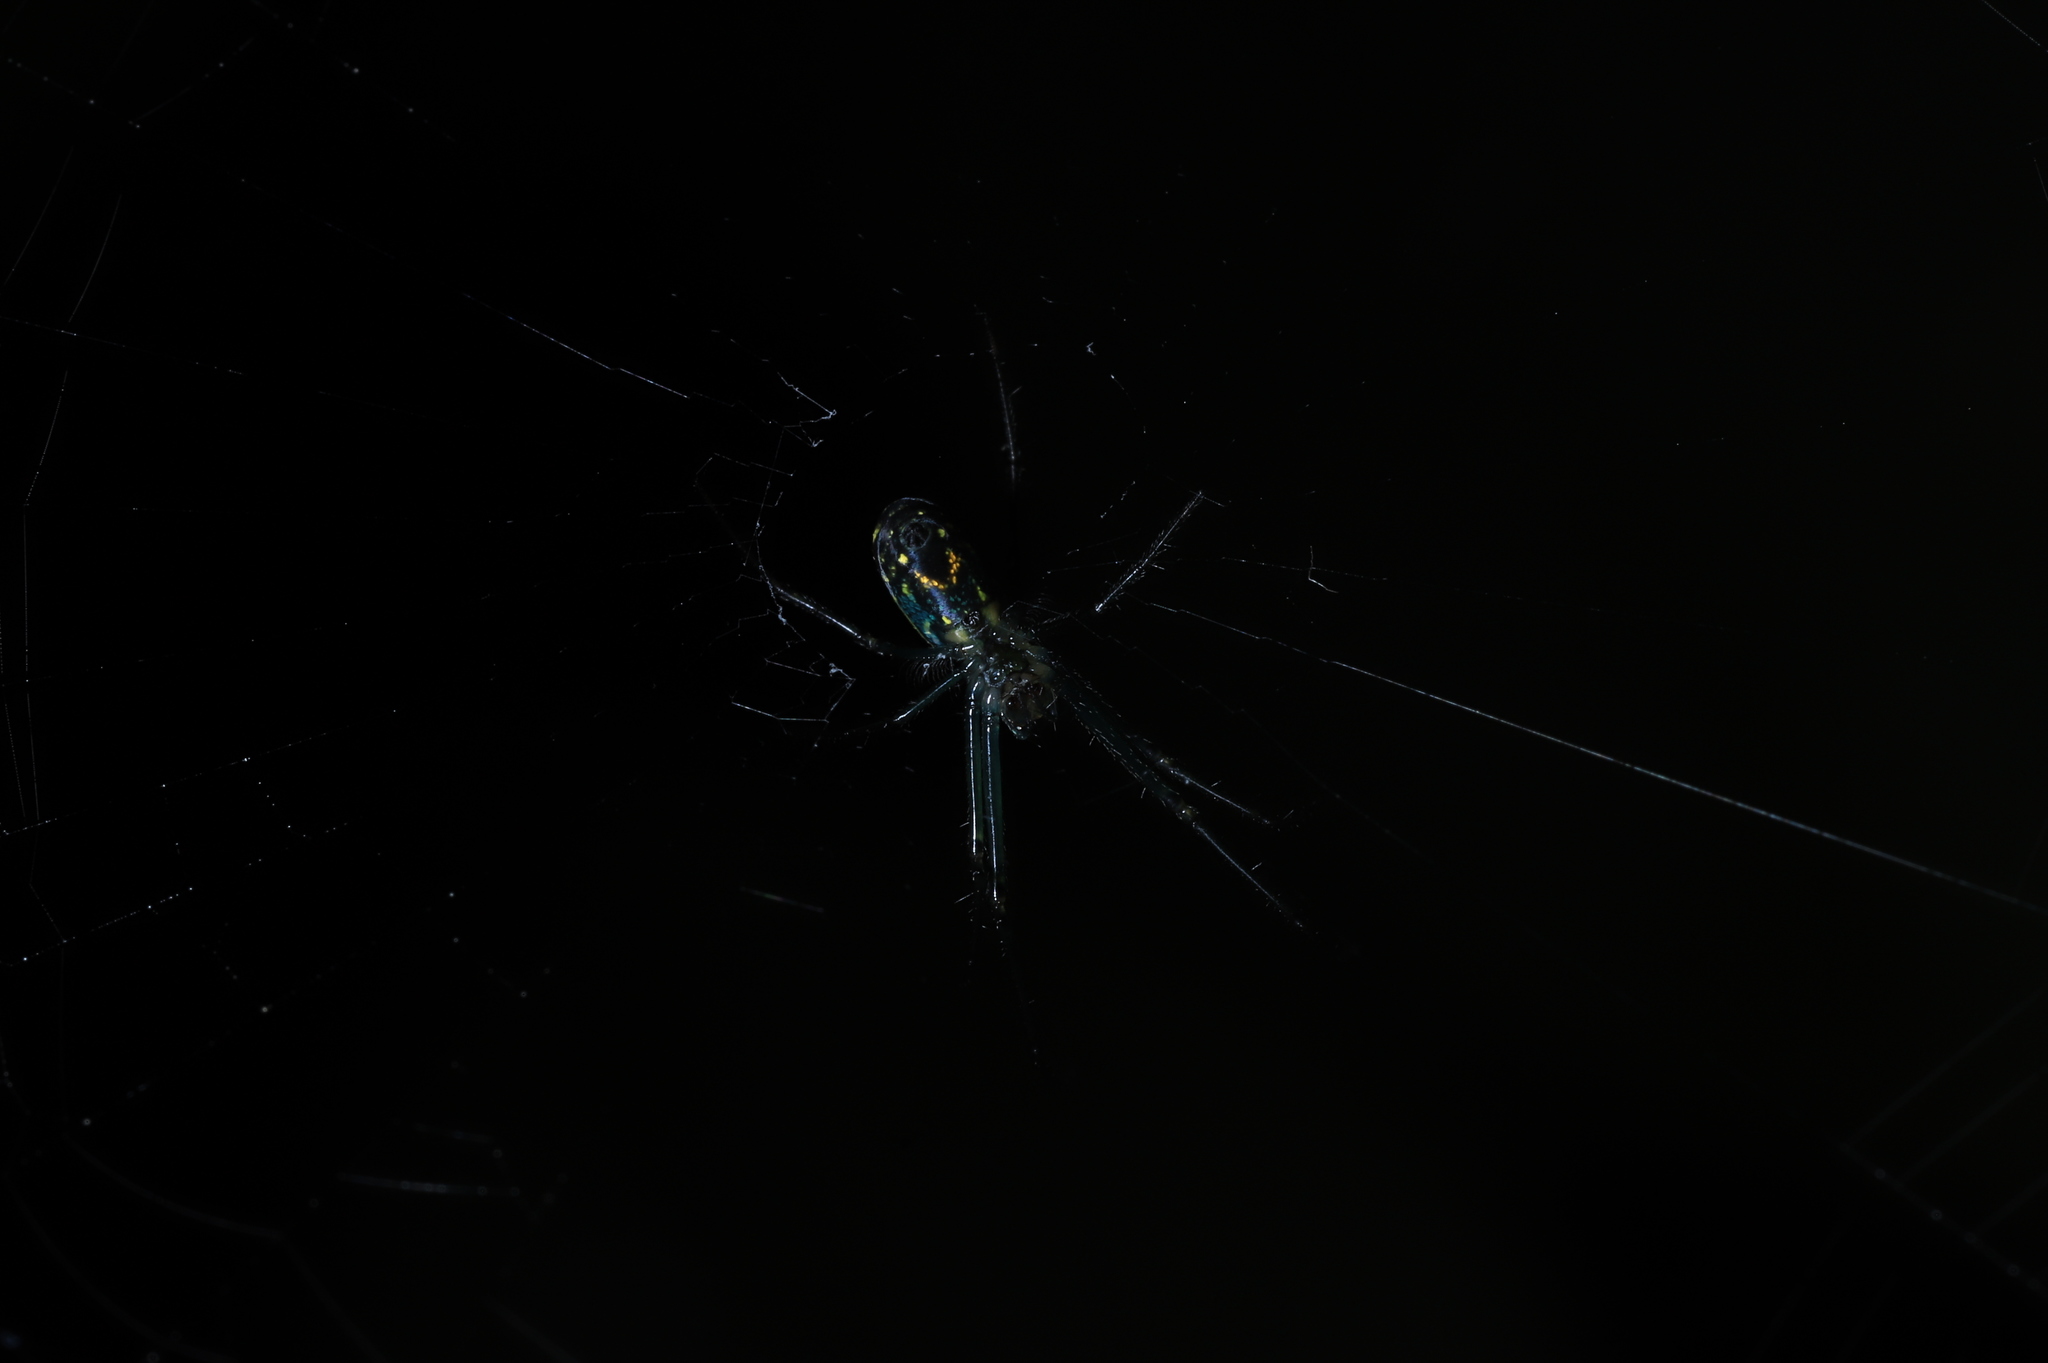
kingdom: Animalia
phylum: Arthropoda
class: Arachnida
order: Araneae
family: Tetragnathidae
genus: Leucauge
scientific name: Leucauge venusta
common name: Longjawed orb weavers
